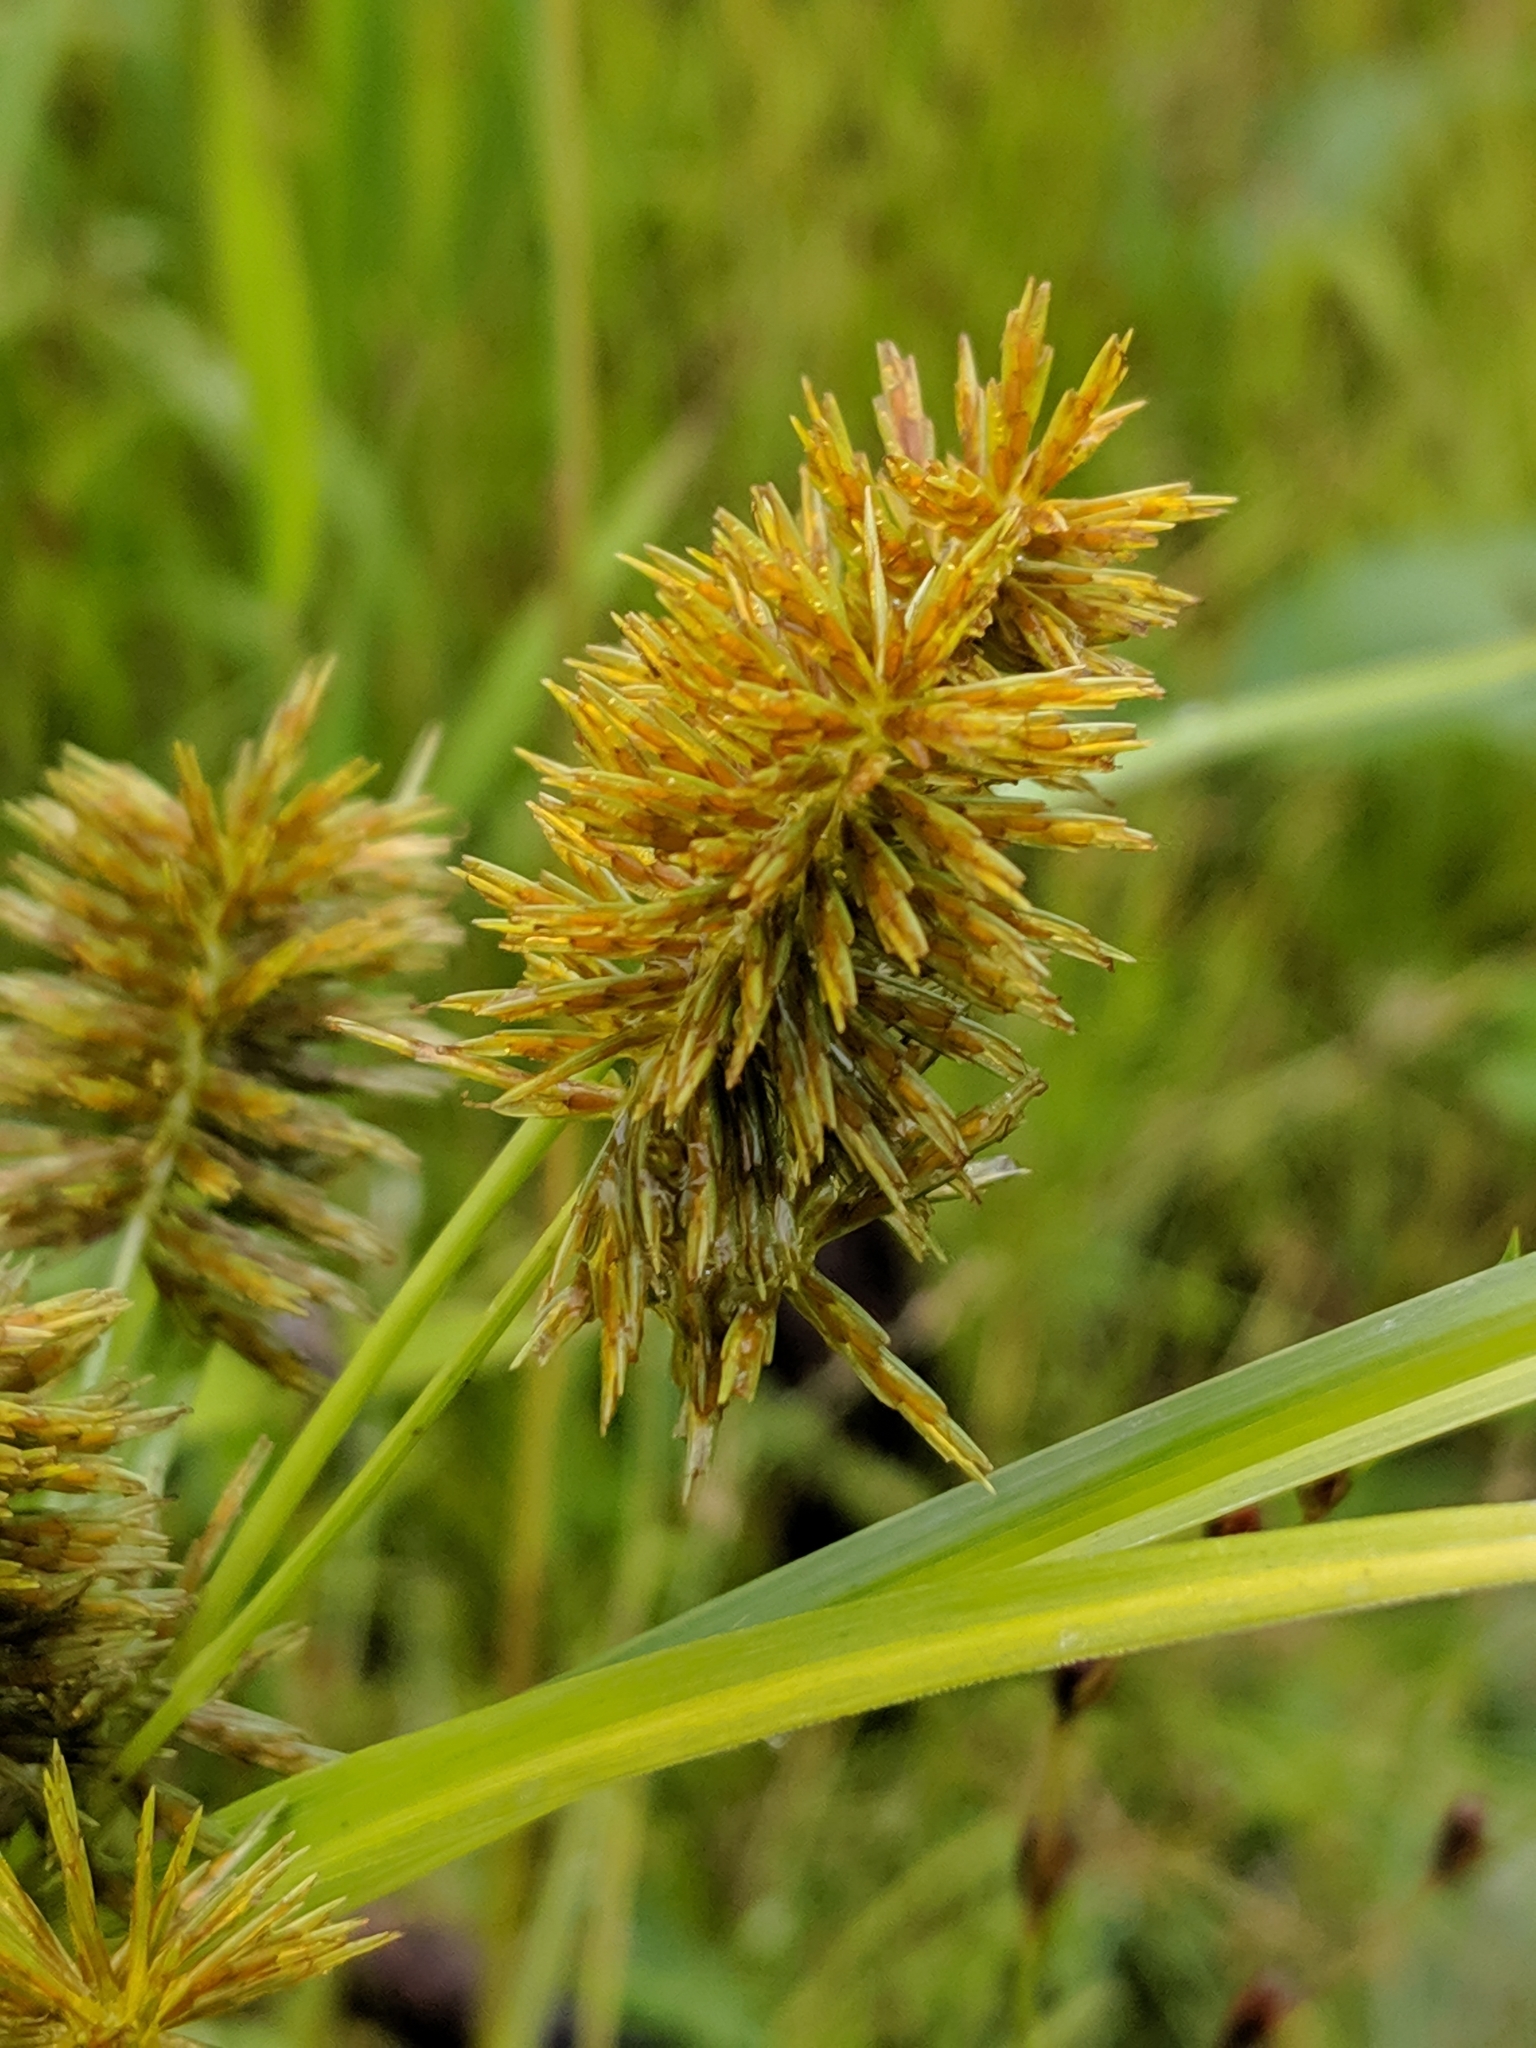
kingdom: Plantae
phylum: Tracheophyta
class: Liliopsida
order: Poales
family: Cyperaceae
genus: Cyperus
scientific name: Cyperus strigosus
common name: False nutsedge
